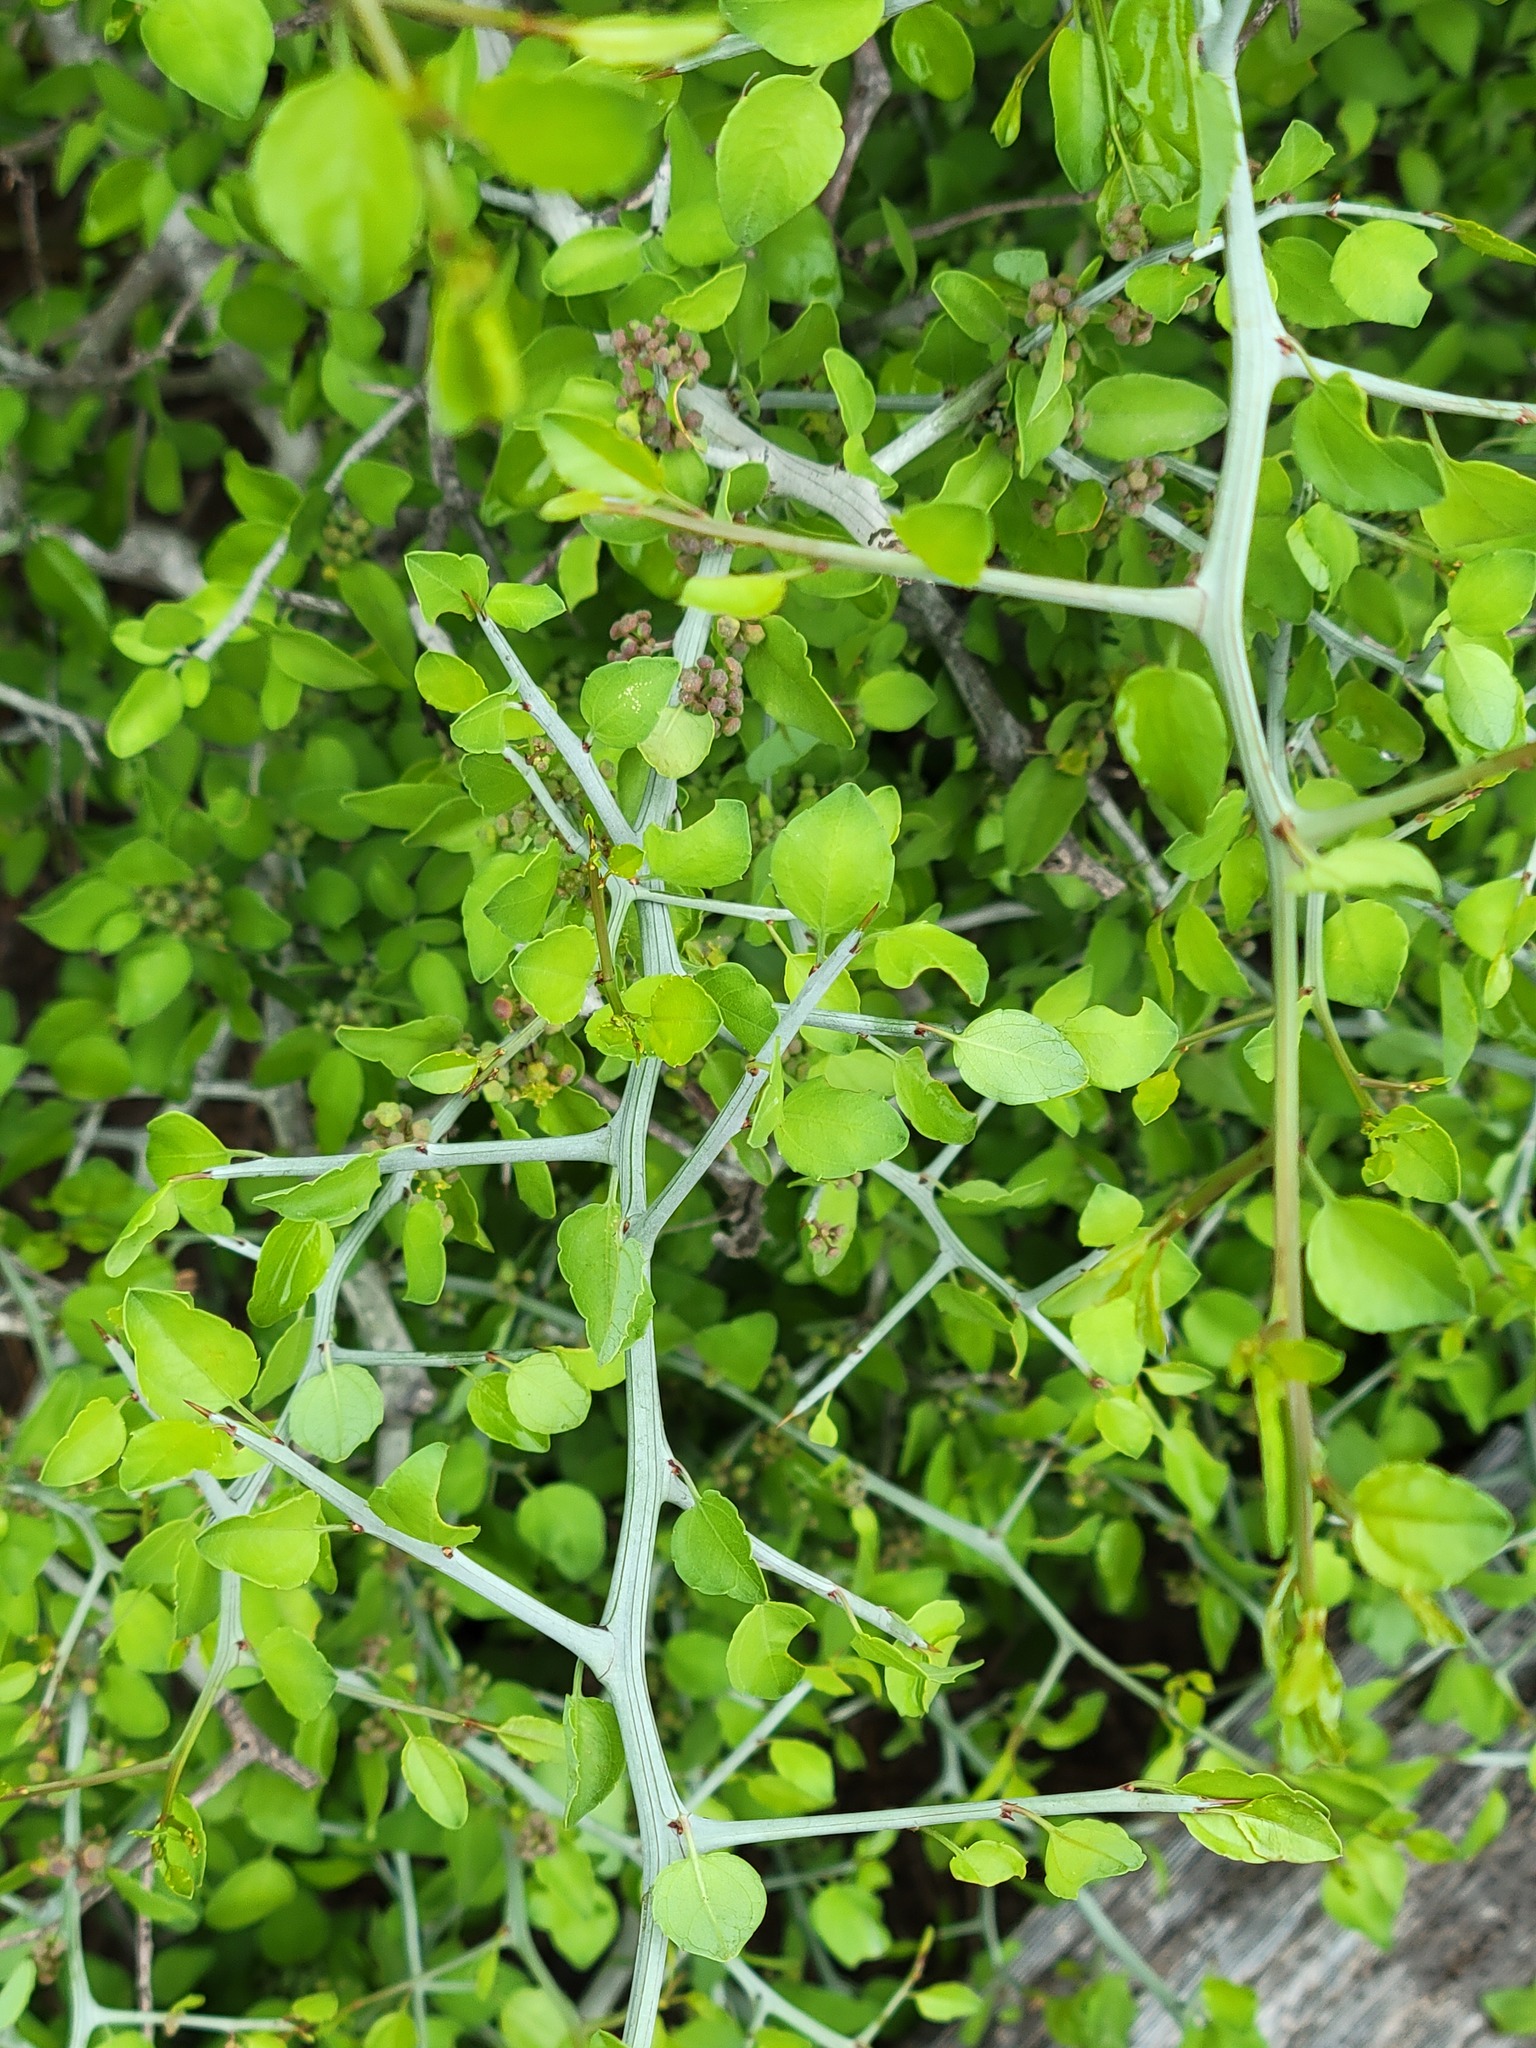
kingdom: Plantae
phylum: Tracheophyta
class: Magnoliopsida
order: Rosales
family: Rhamnaceae
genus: Sarcomphalus
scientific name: Sarcomphalus obtusifolius
